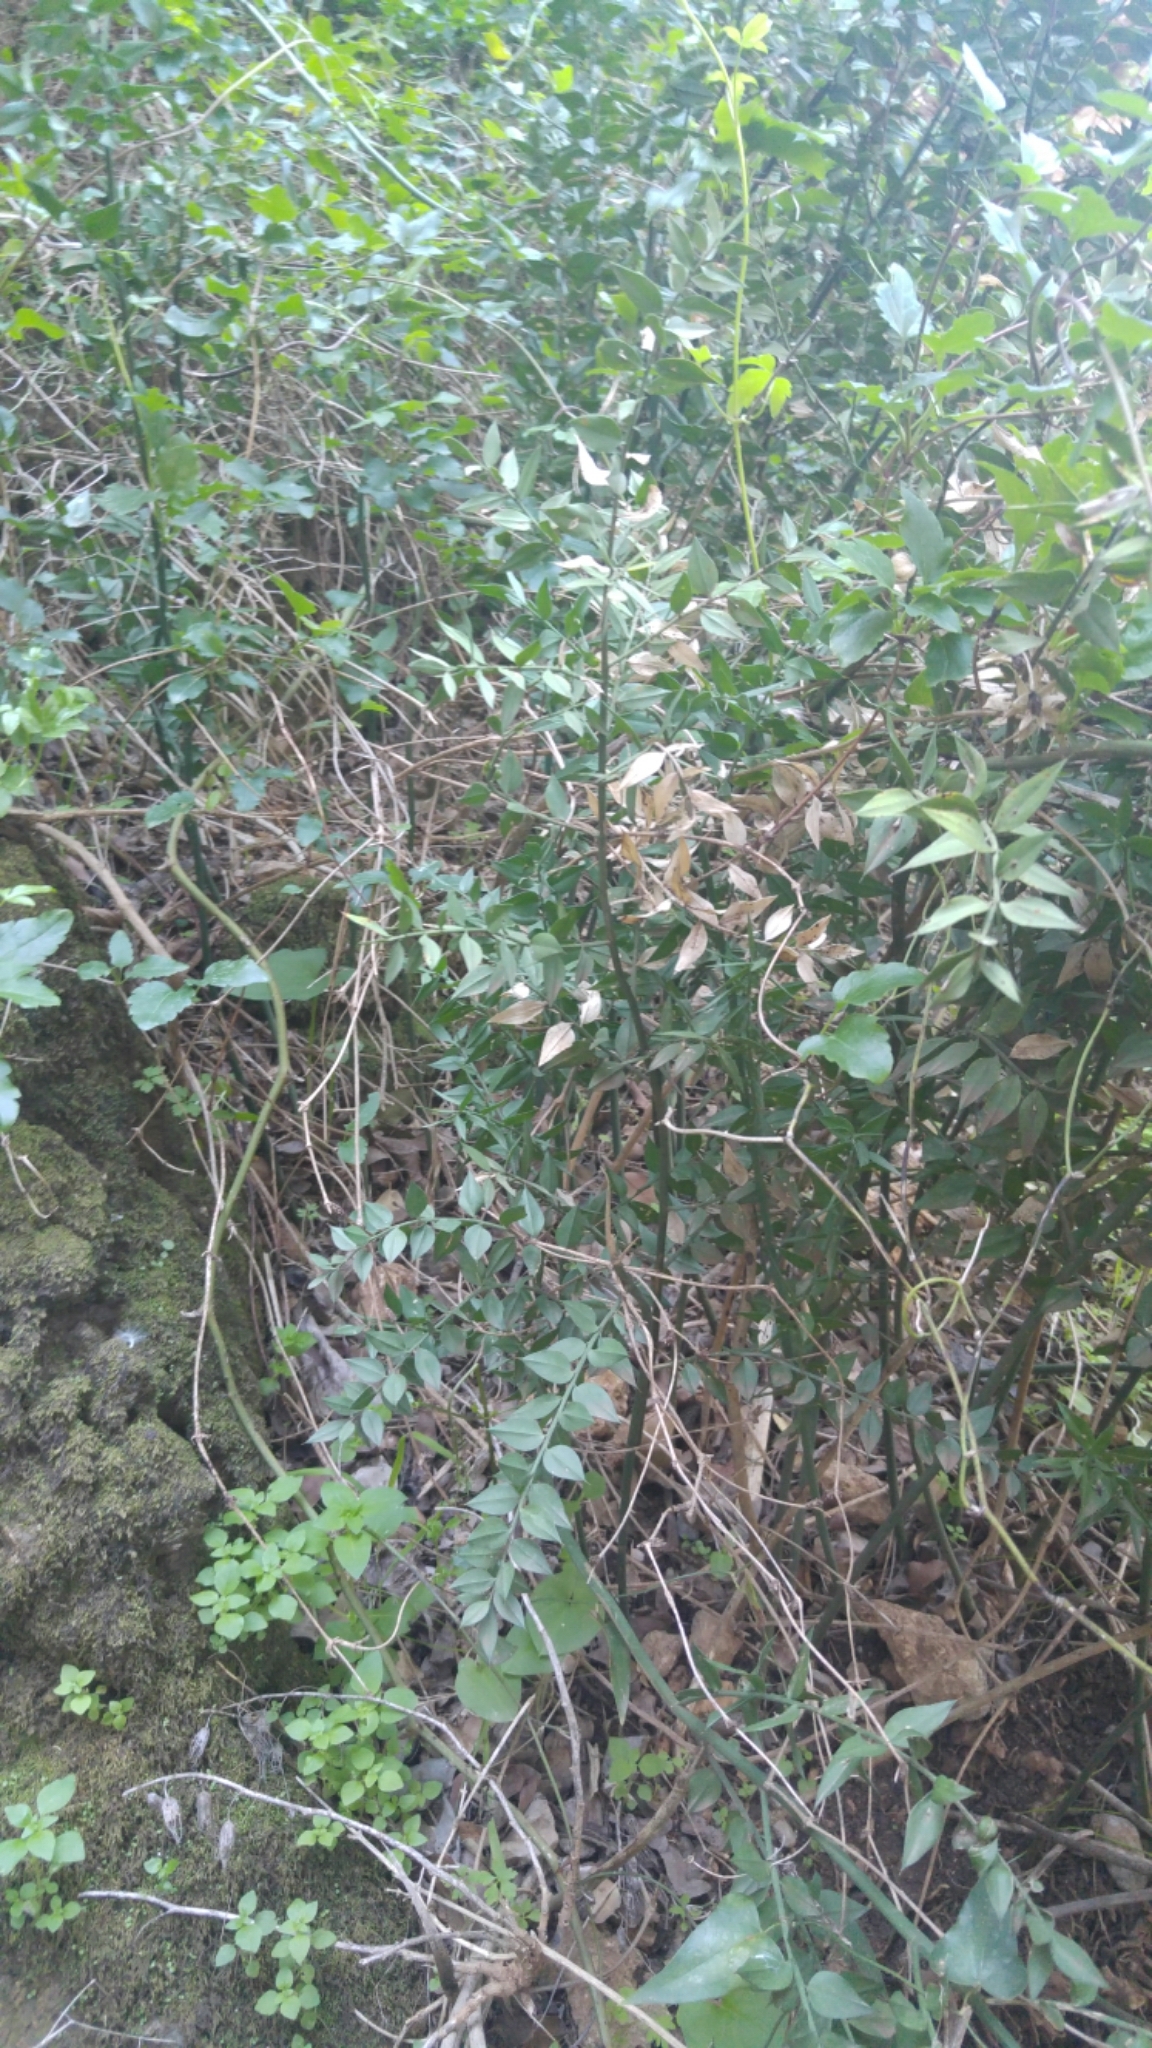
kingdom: Plantae
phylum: Tracheophyta
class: Liliopsida
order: Asparagales
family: Asparagaceae
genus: Ruscus
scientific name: Ruscus aculeatus
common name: Butcher's-broom
